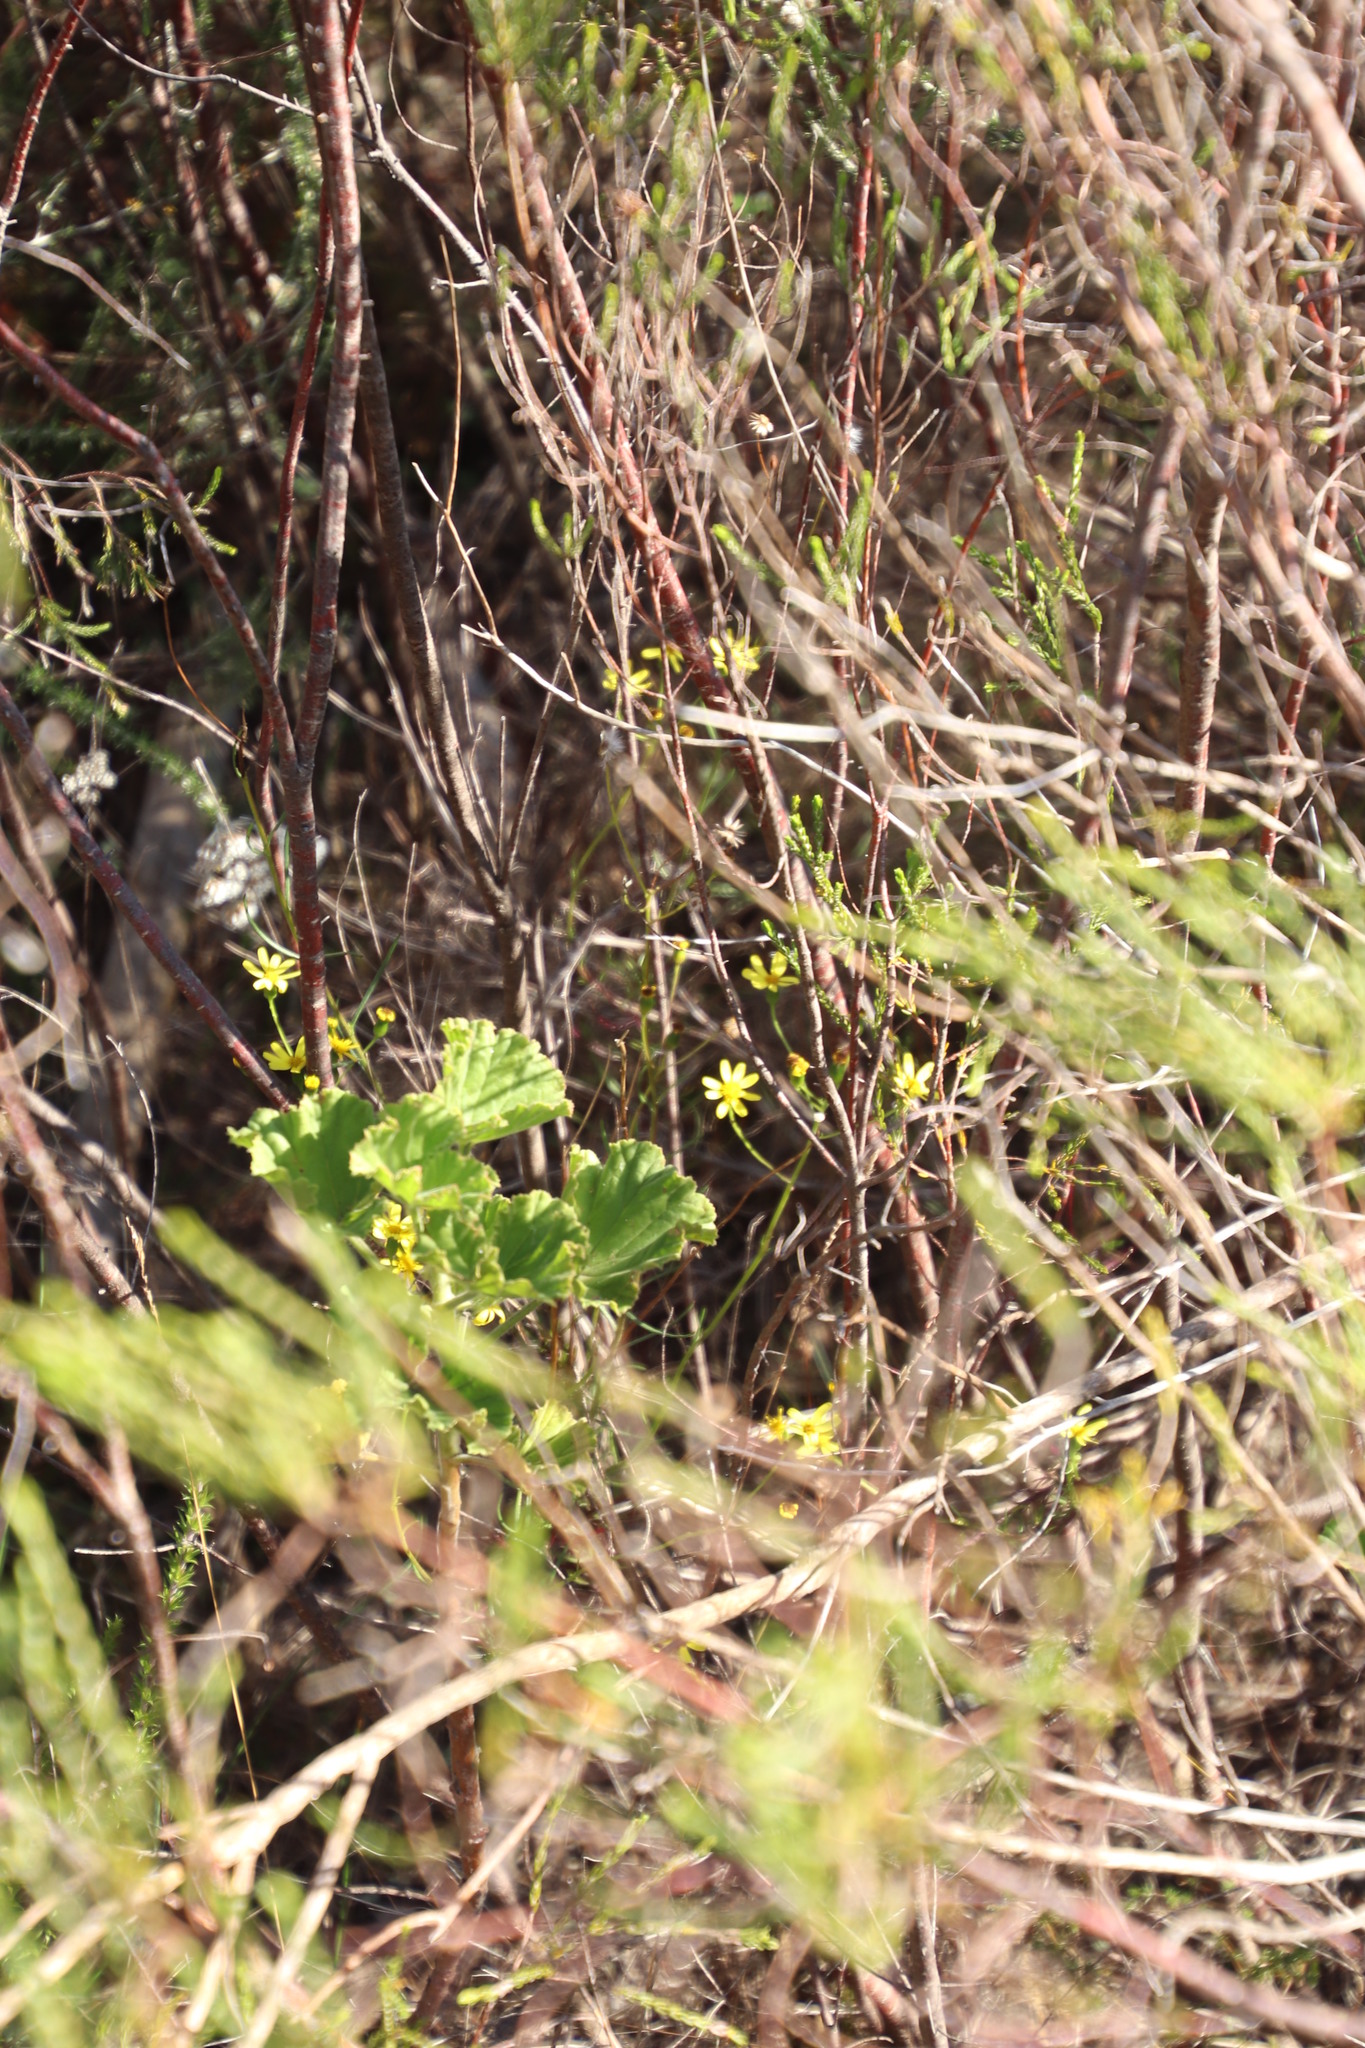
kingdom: Plantae
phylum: Tracheophyta
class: Magnoliopsida
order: Asterales
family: Asteraceae
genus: Senecio
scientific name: Senecio burchellii
